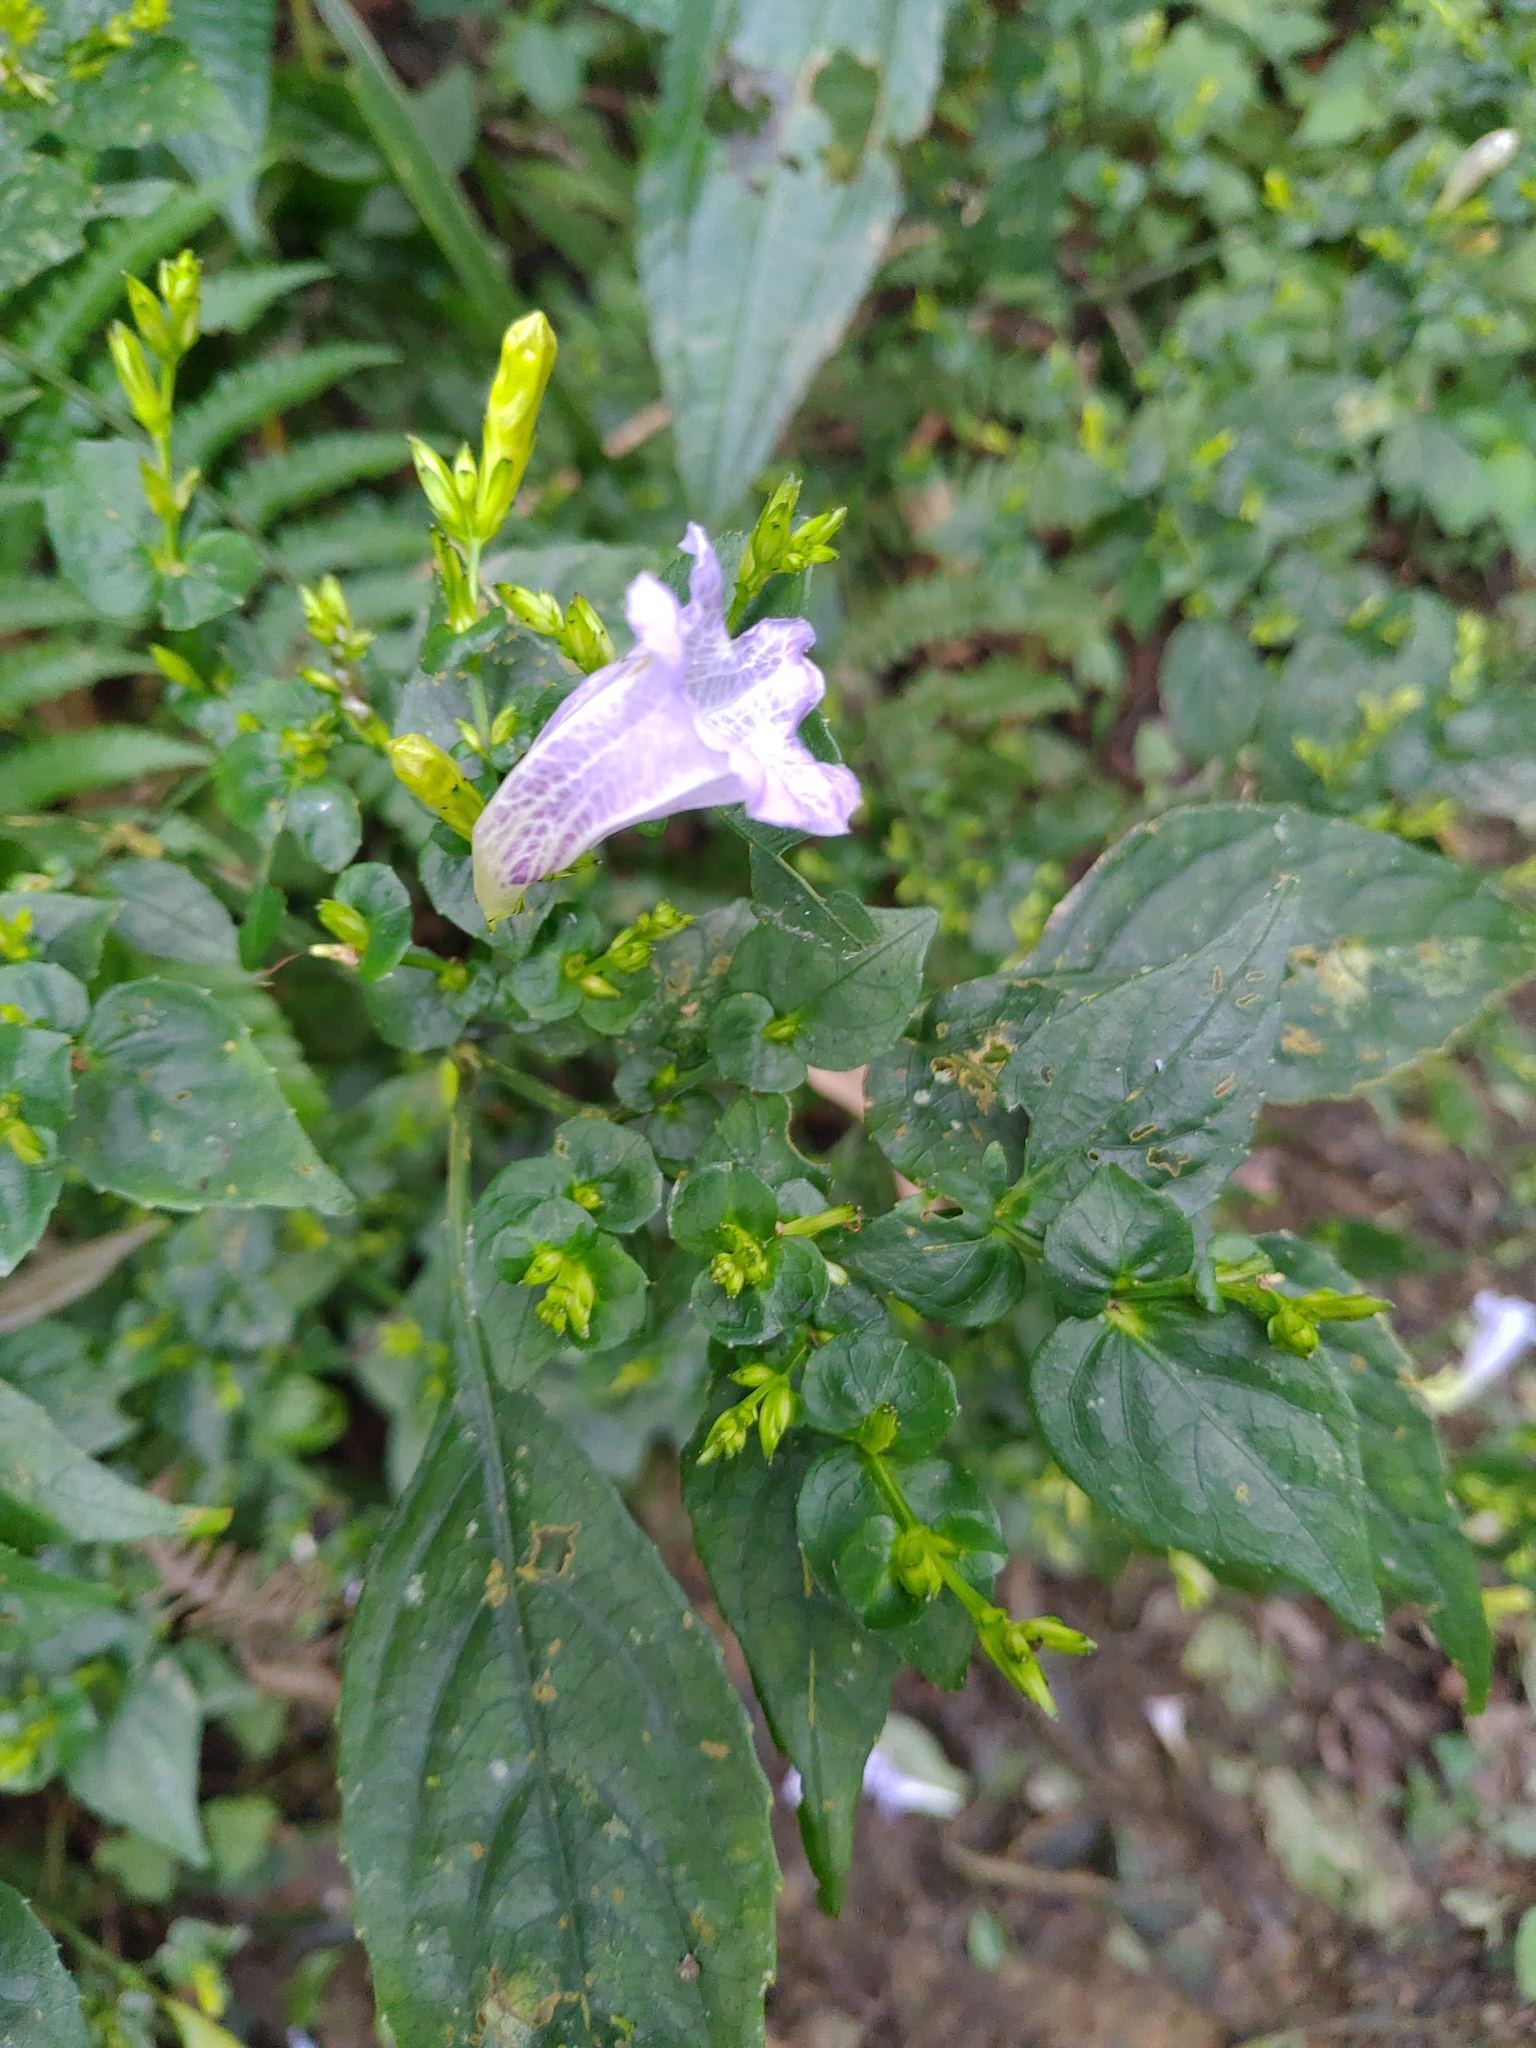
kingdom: Plantae
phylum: Tracheophyta
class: Magnoliopsida
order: Lamiales
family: Acanthaceae
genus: Strobilanthes
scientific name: Strobilanthes flexicaulis
